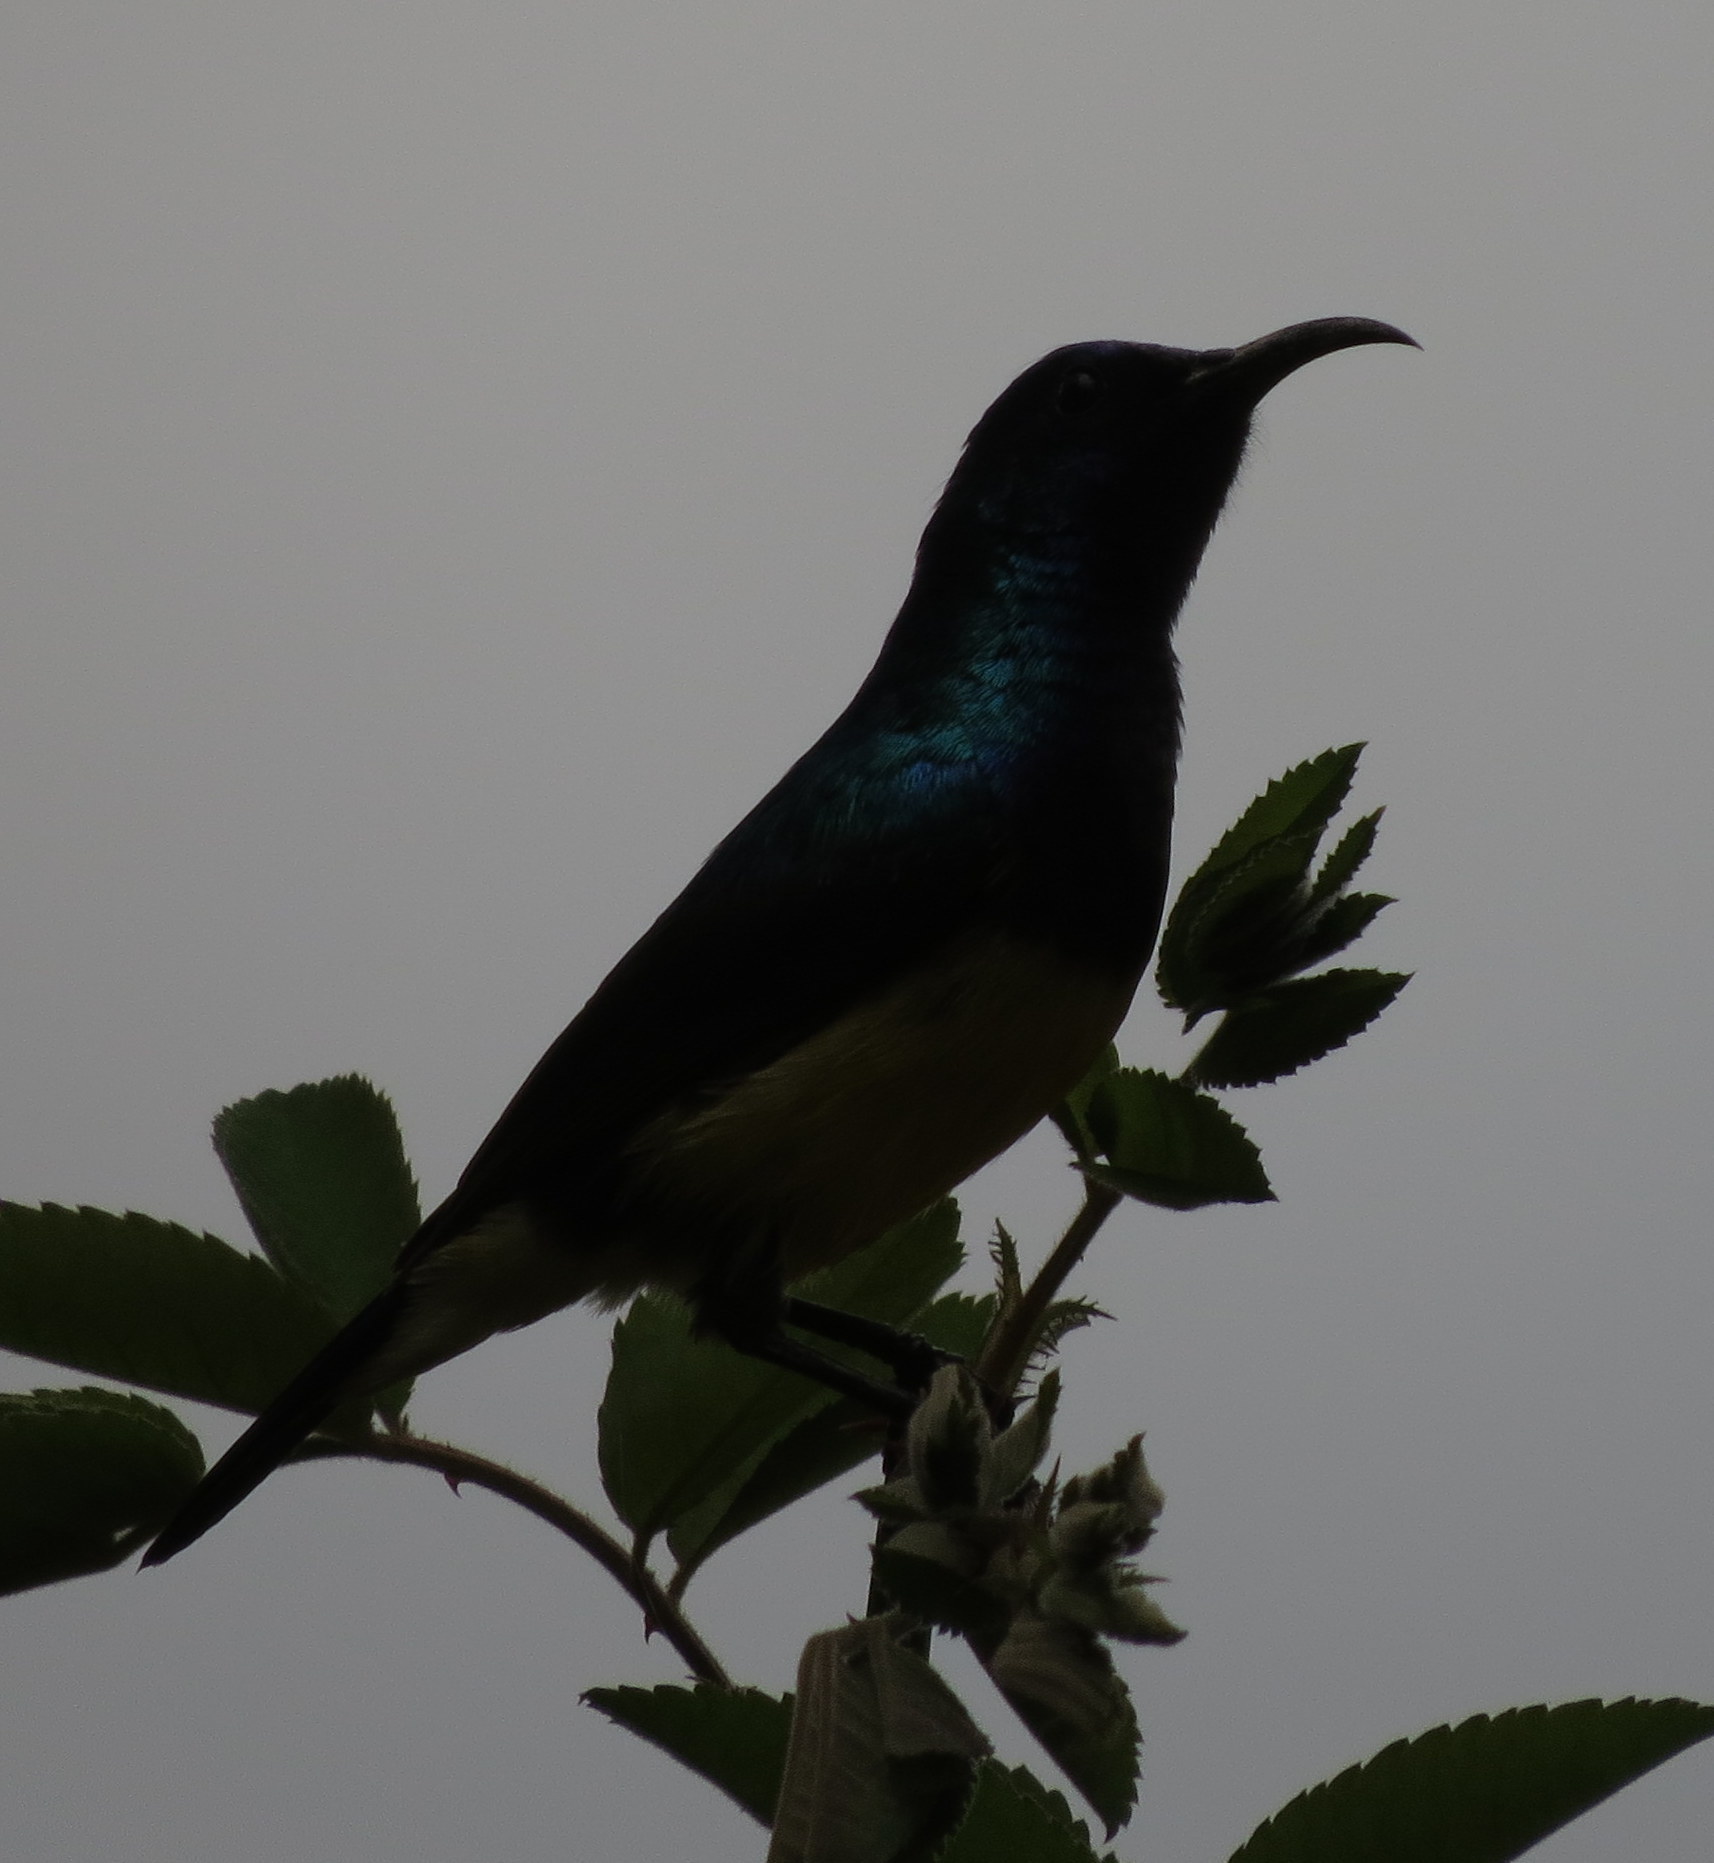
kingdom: Animalia
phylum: Chordata
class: Aves
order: Passeriformes
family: Nectariniidae
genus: Cinnyris
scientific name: Cinnyris venustus
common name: Variable sunbird
